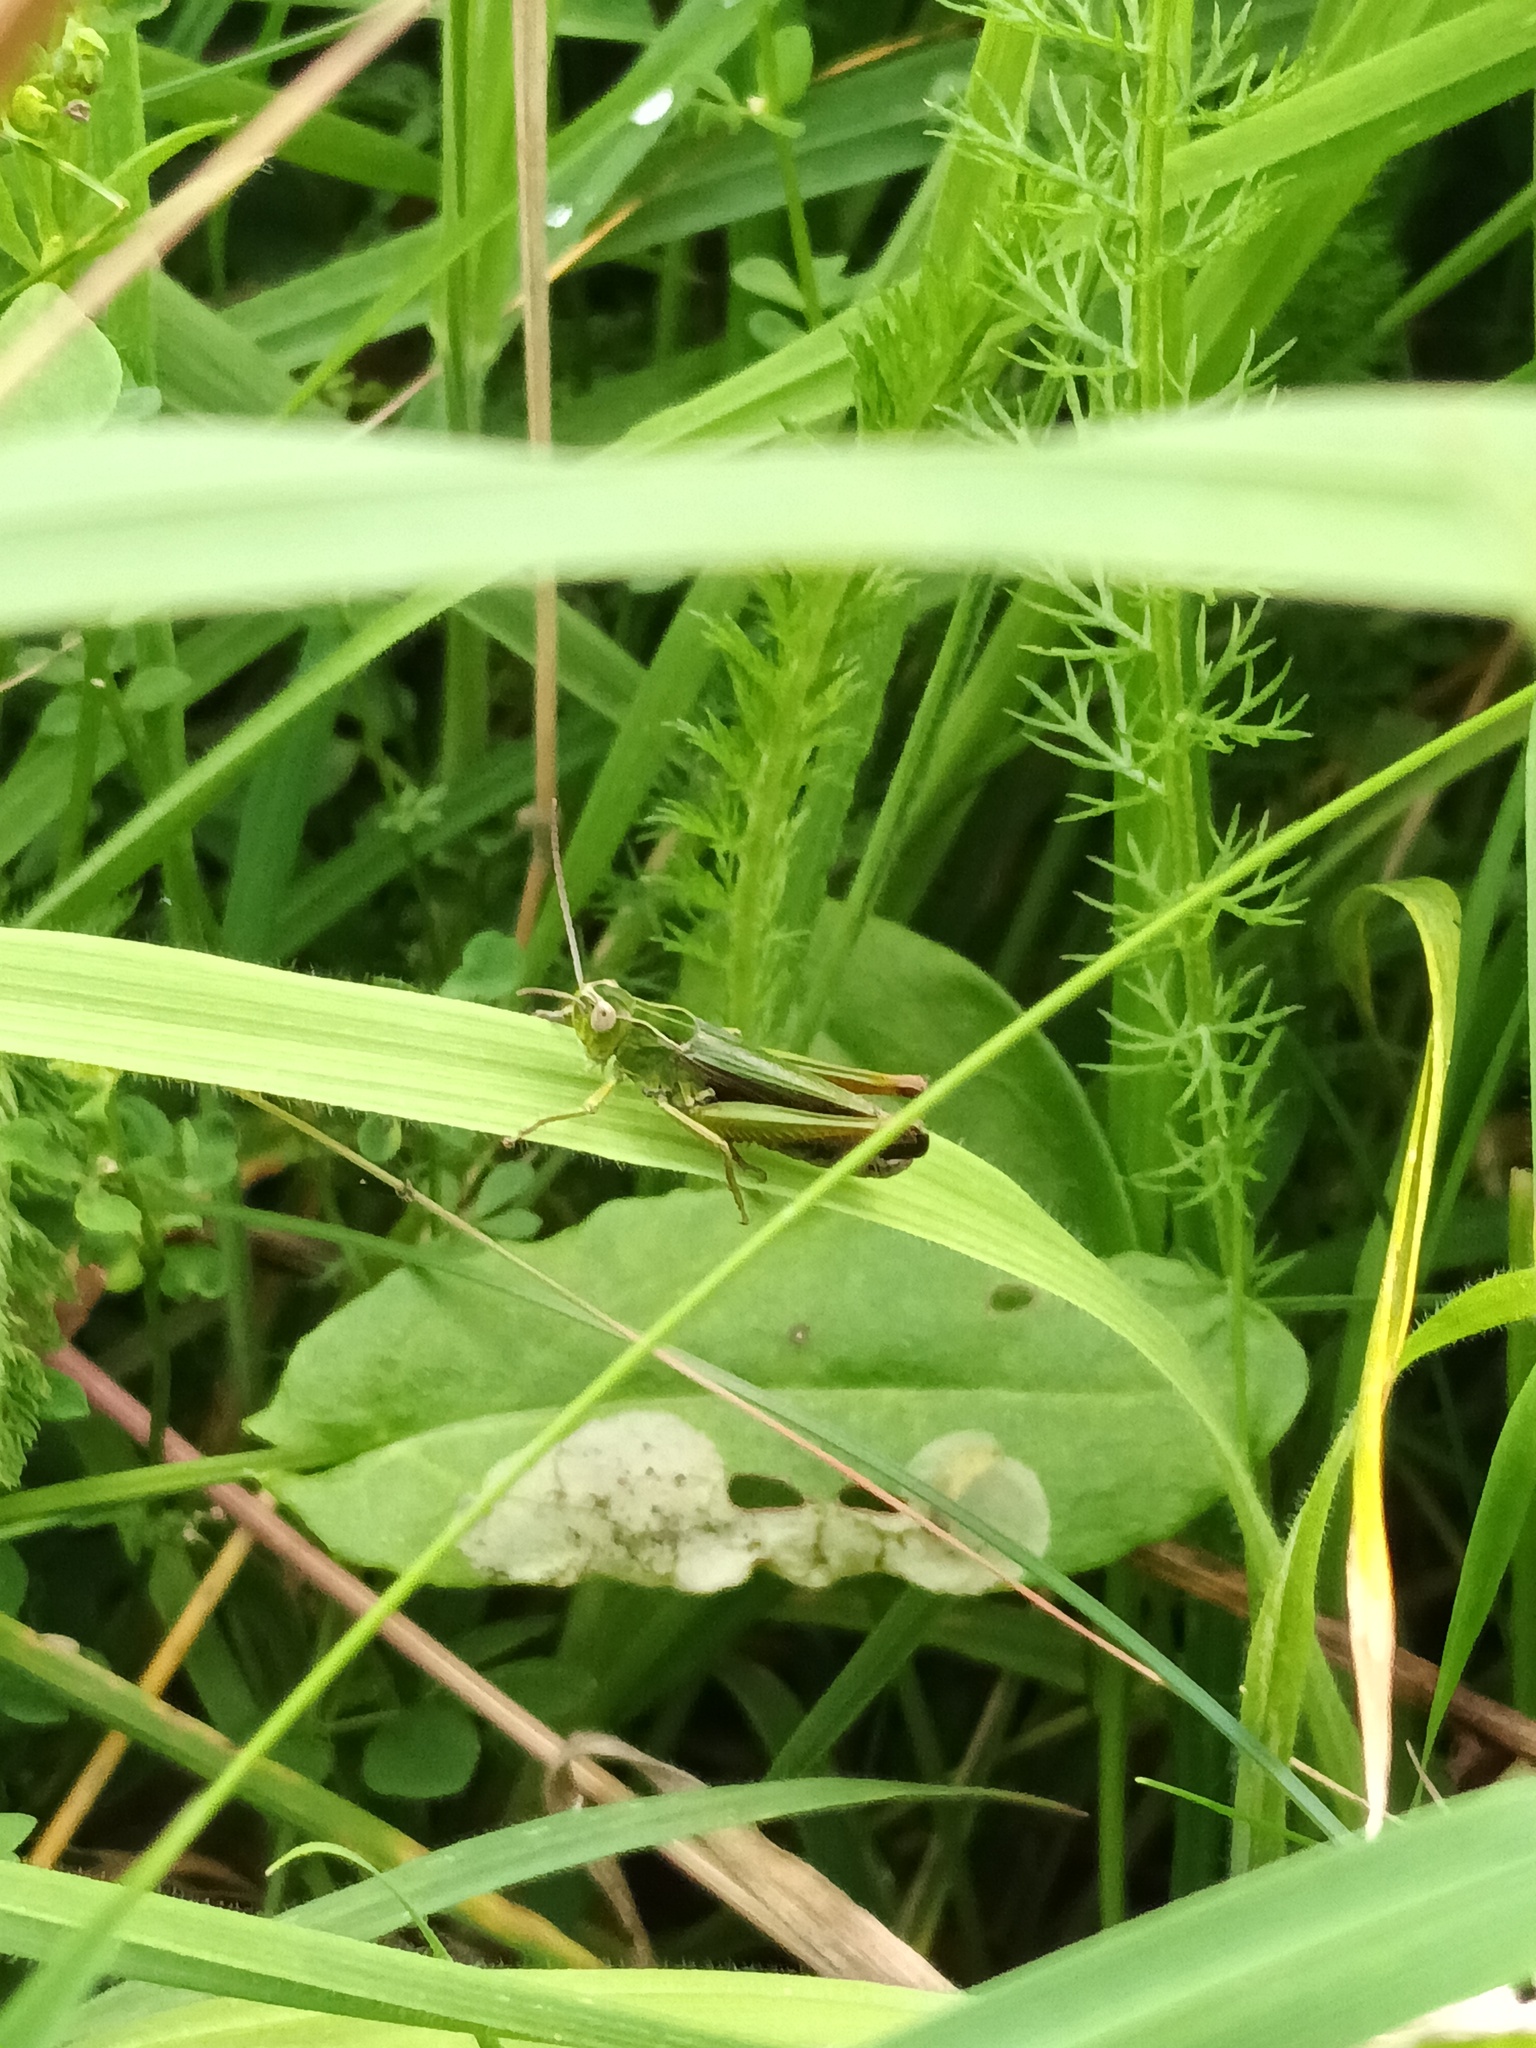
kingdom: Animalia
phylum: Arthropoda
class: Insecta
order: Orthoptera
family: Acrididae
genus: Omocestus
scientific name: Omocestus viridulus
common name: Common green grasshopper
